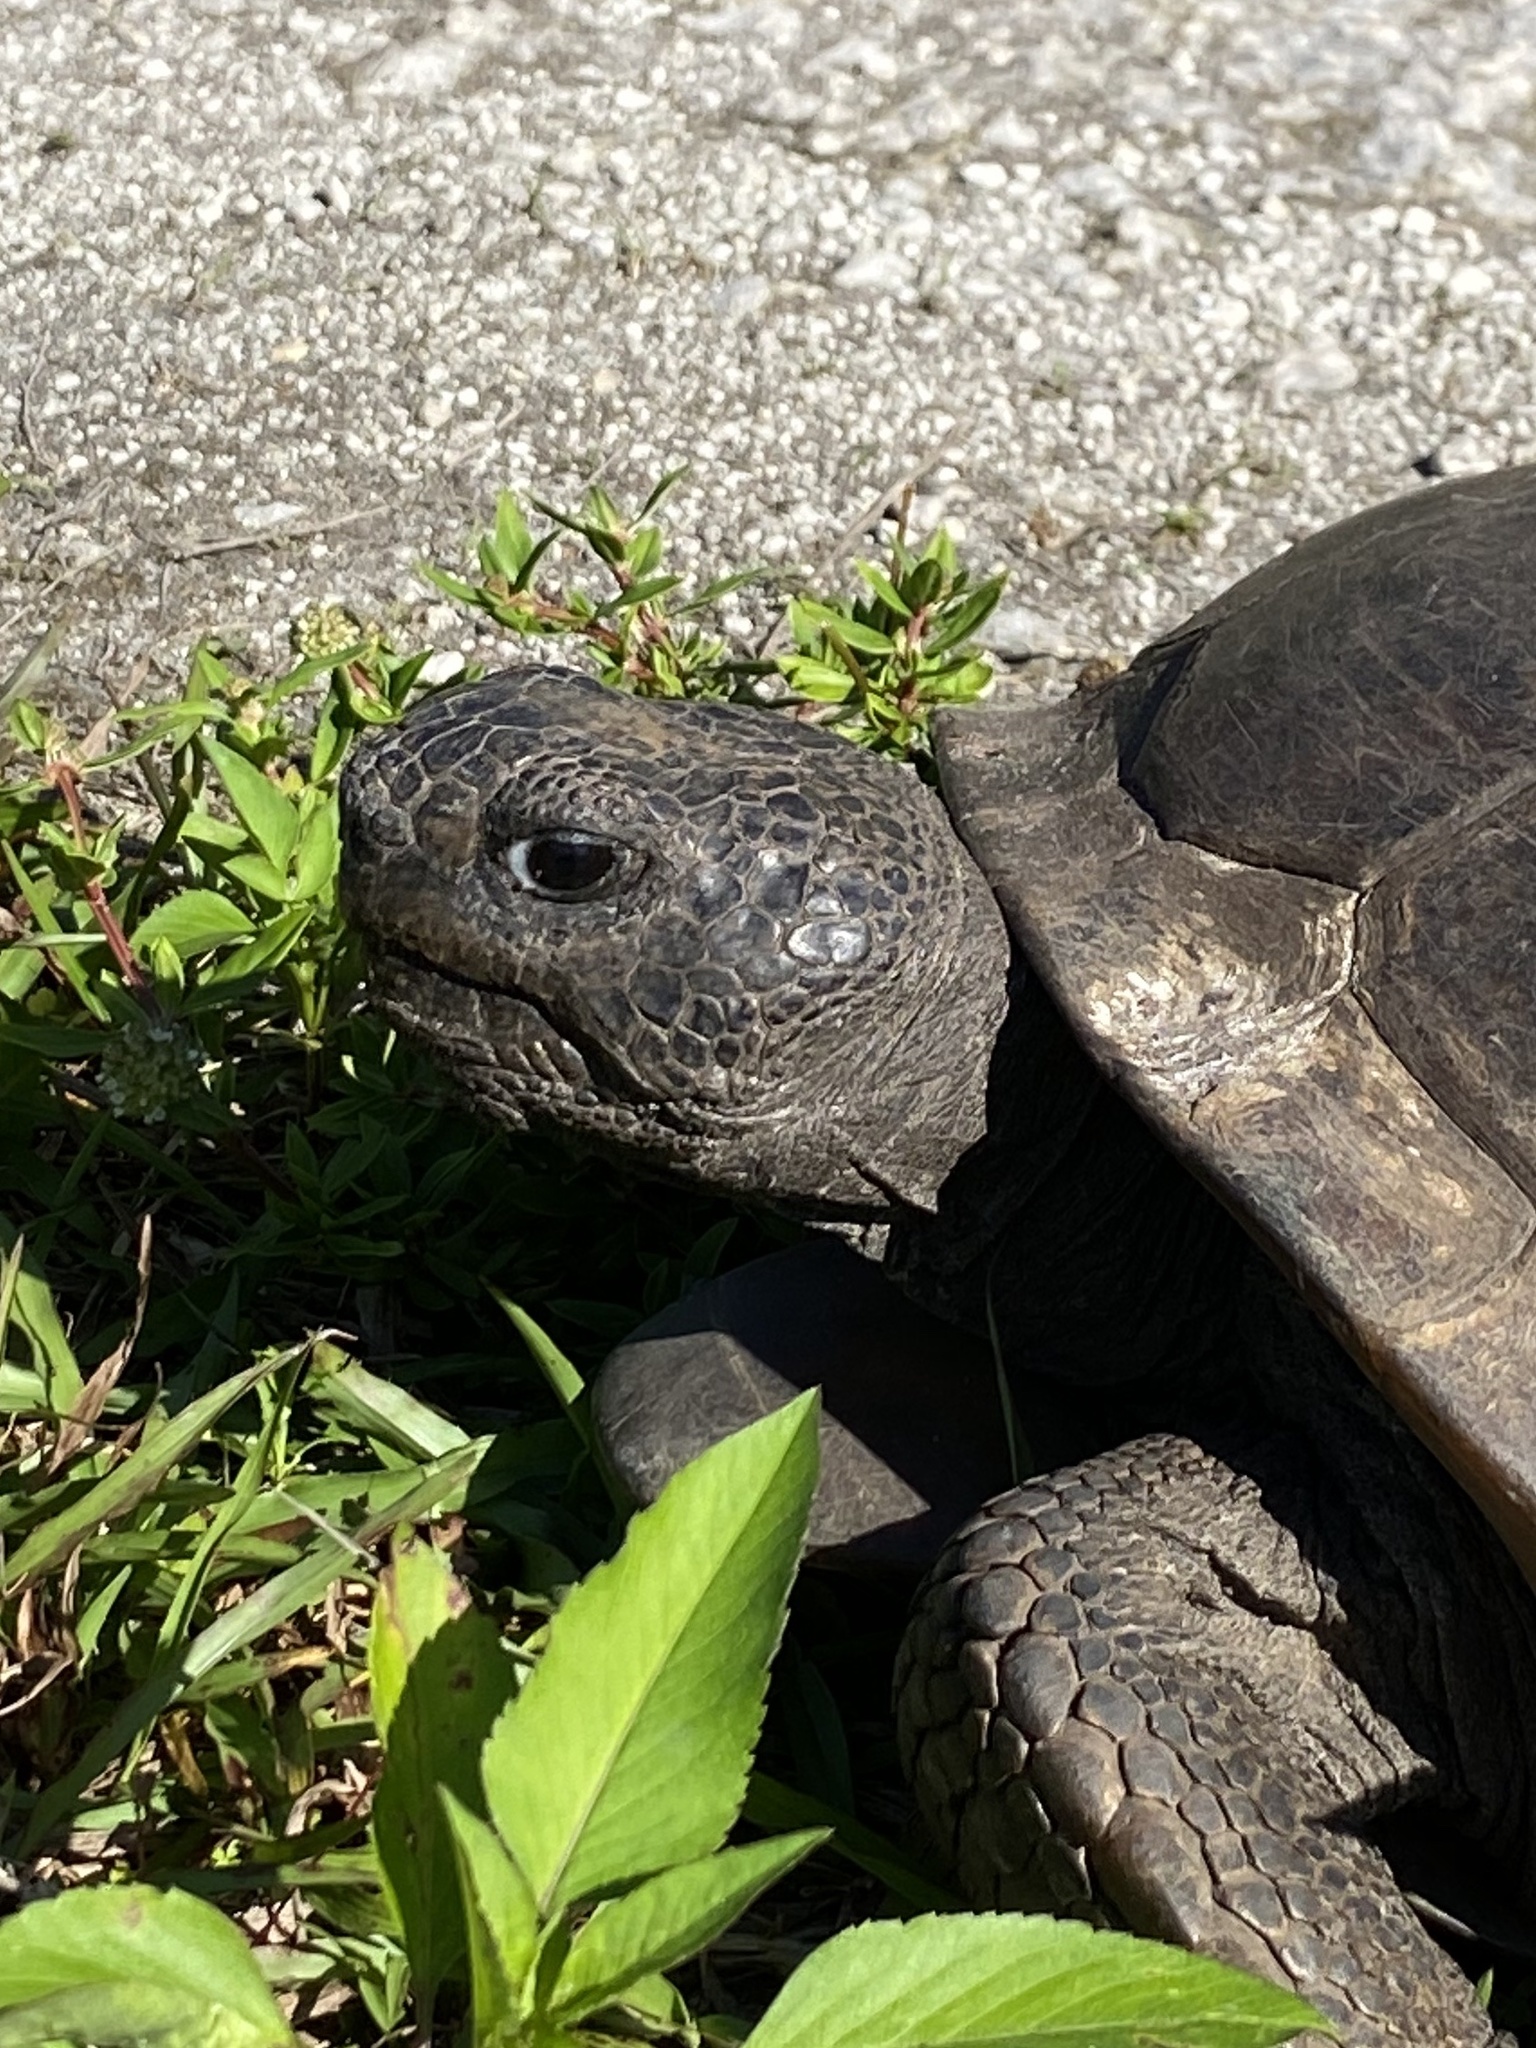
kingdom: Animalia
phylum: Chordata
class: Testudines
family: Testudinidae
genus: Gopherus
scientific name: Gopherus polyphemus
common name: Florida gopher tortoise
